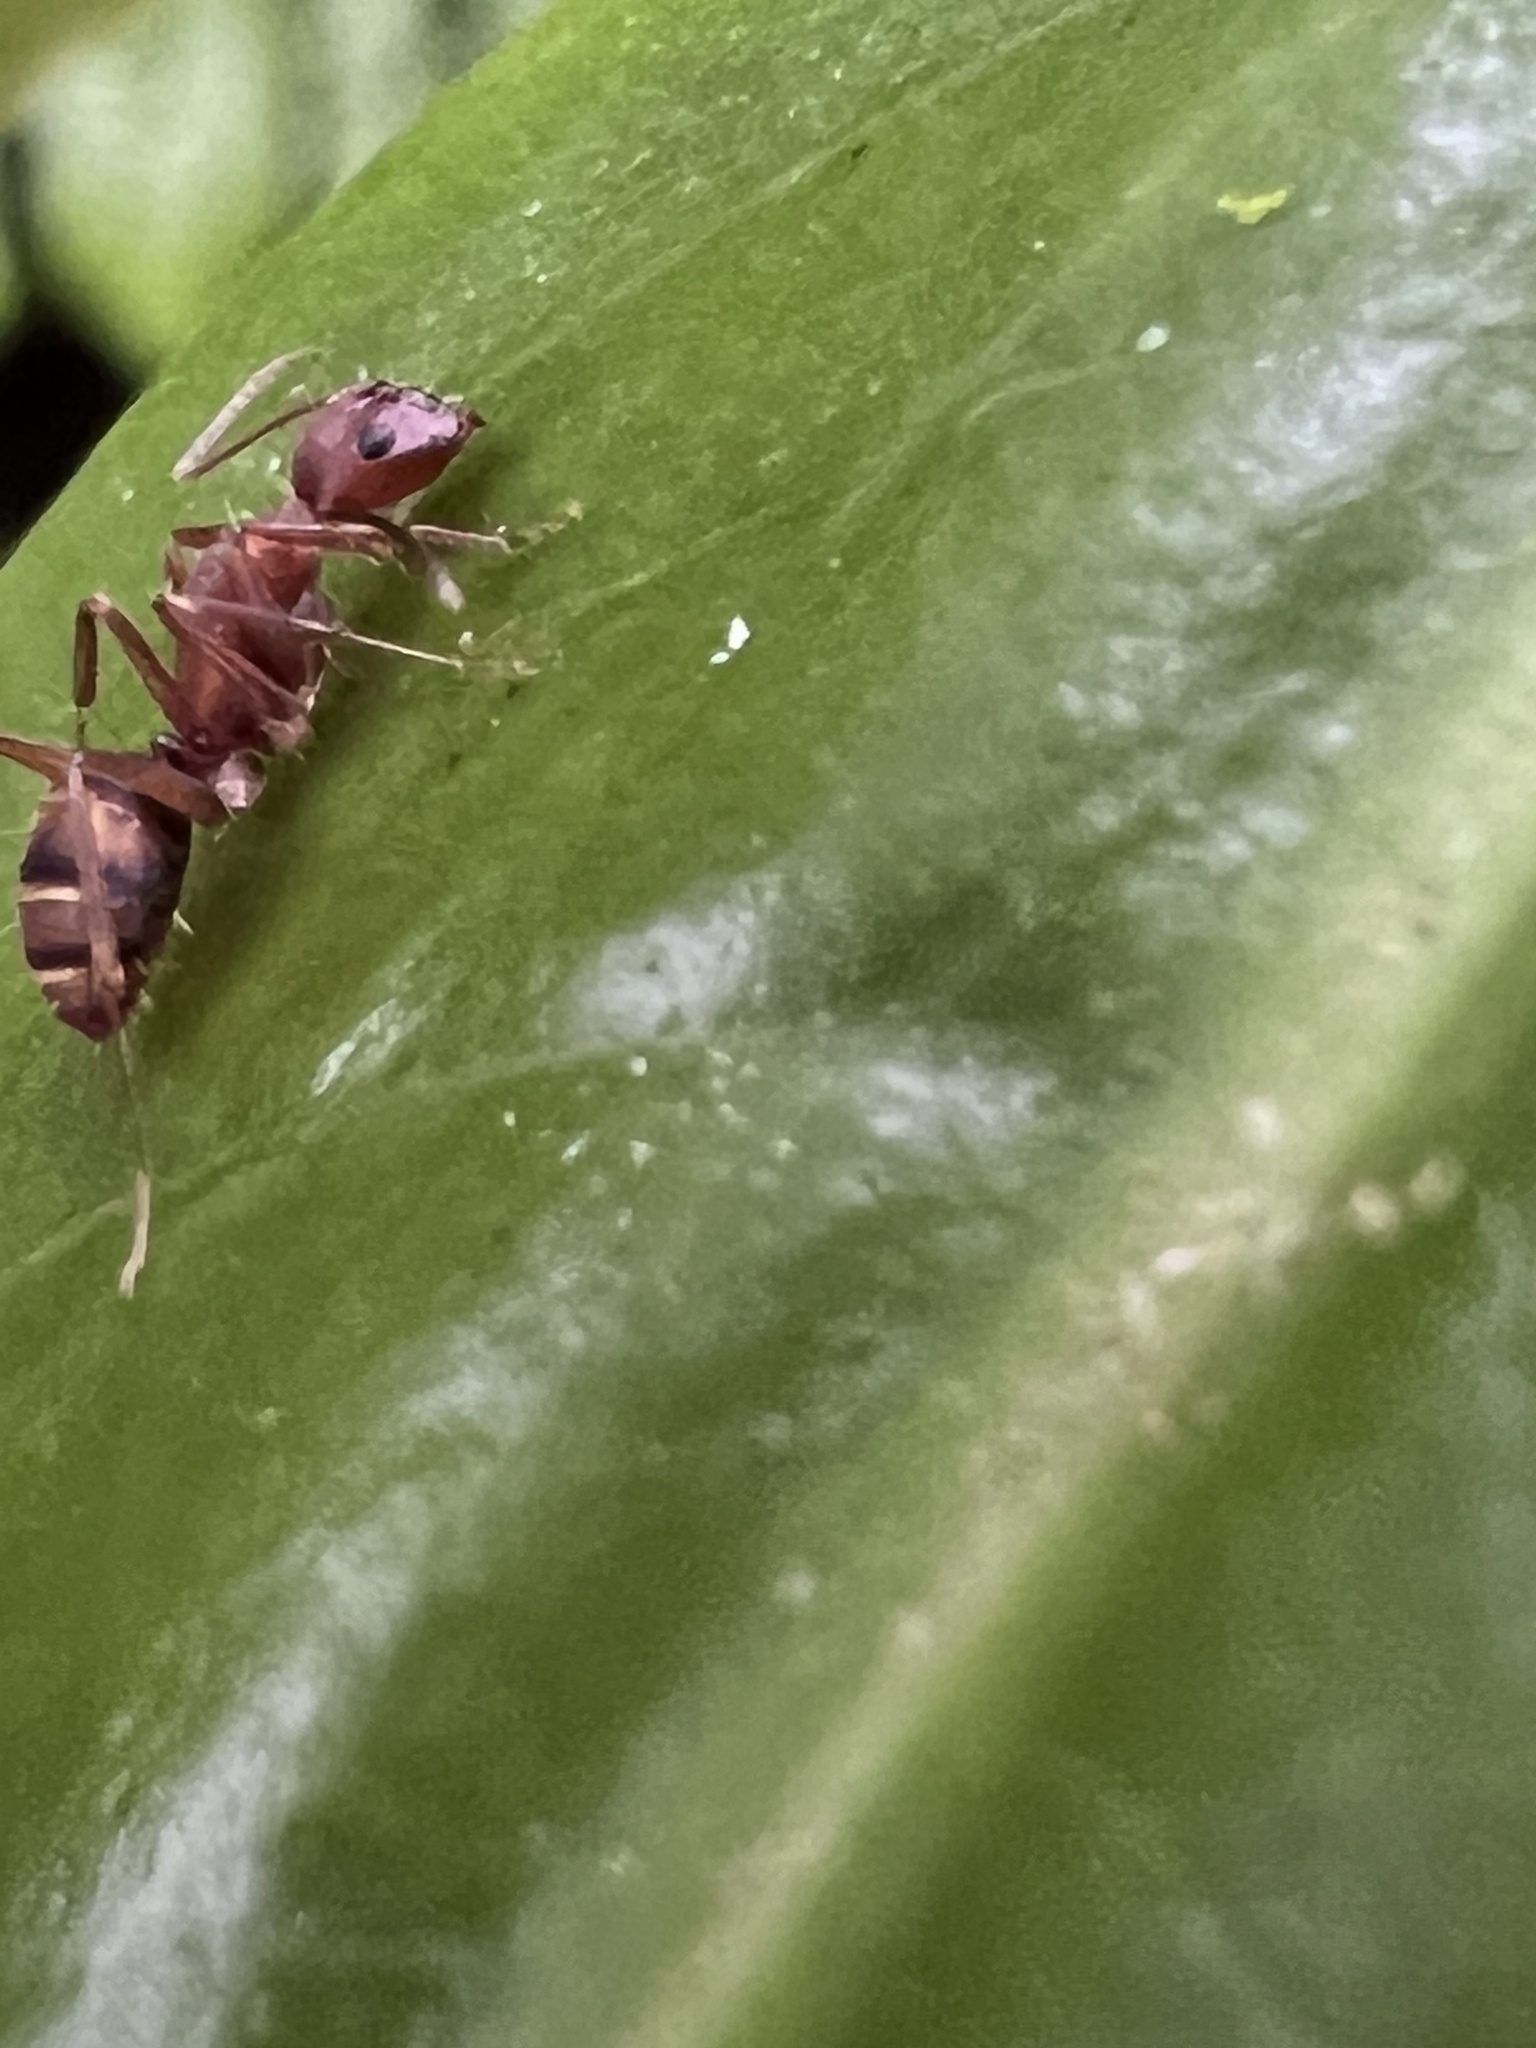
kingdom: Animalia
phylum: Arthropoda
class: Insecta
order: Hymenoptera
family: Formicidae
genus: Camponotus
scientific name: Camponotus juliae
